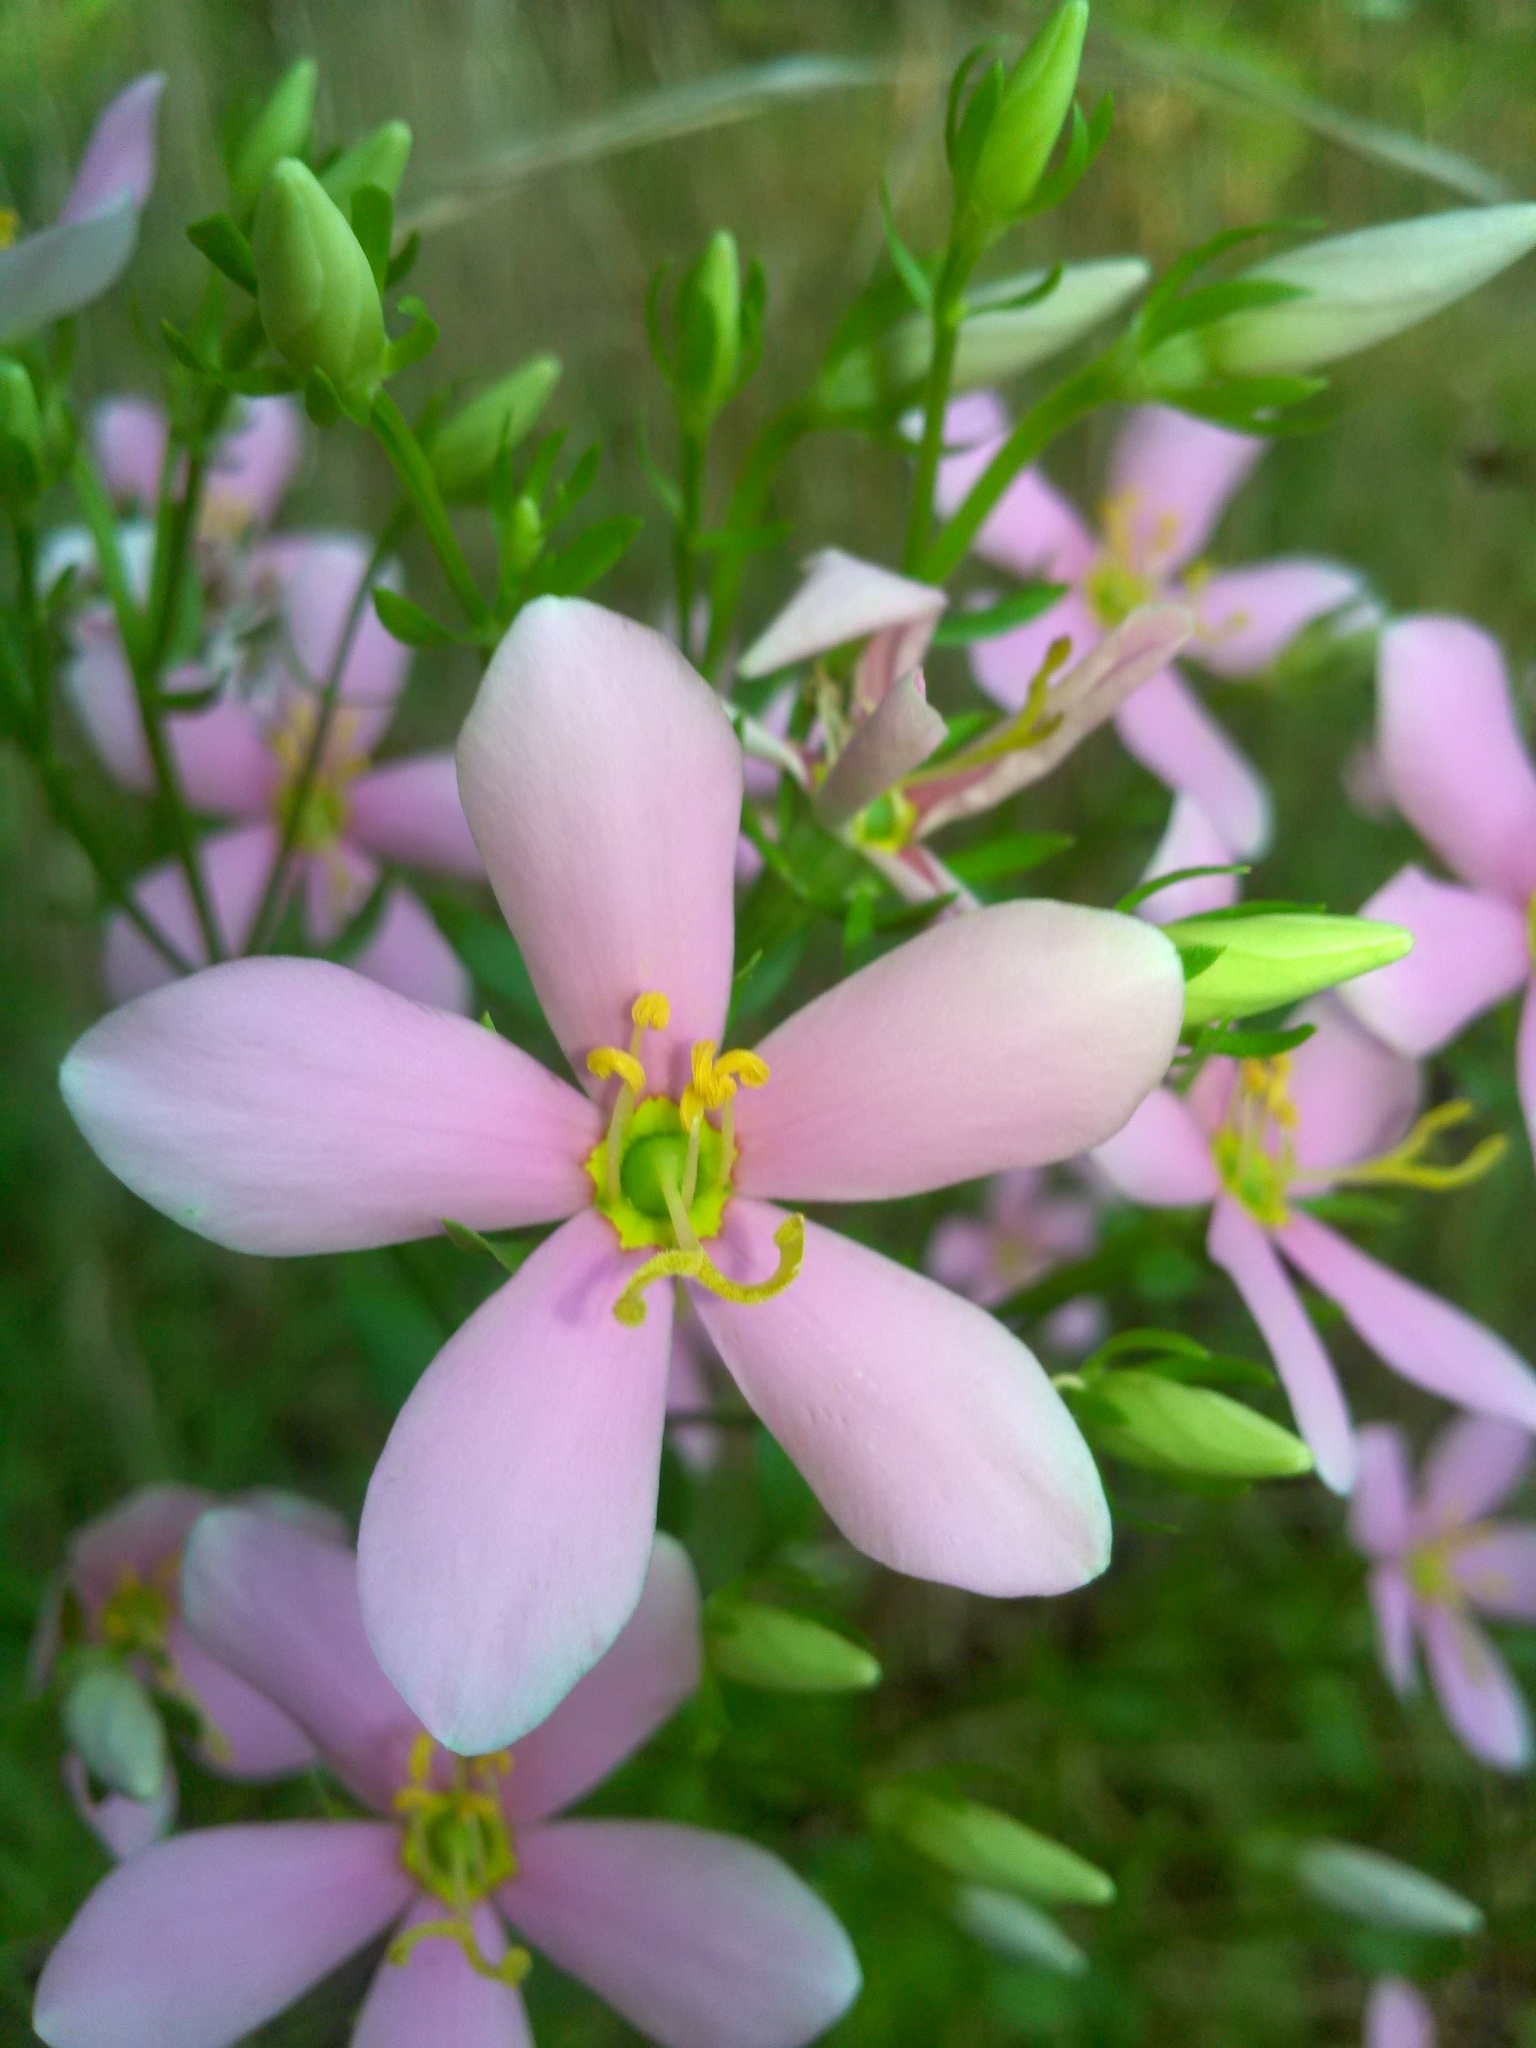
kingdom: Plantae
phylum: Tracheophyta
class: Magnoliopsida
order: Gentianales
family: Gentianaceae
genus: Sabatia
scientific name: Sabatia angularis
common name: Rose-pink
